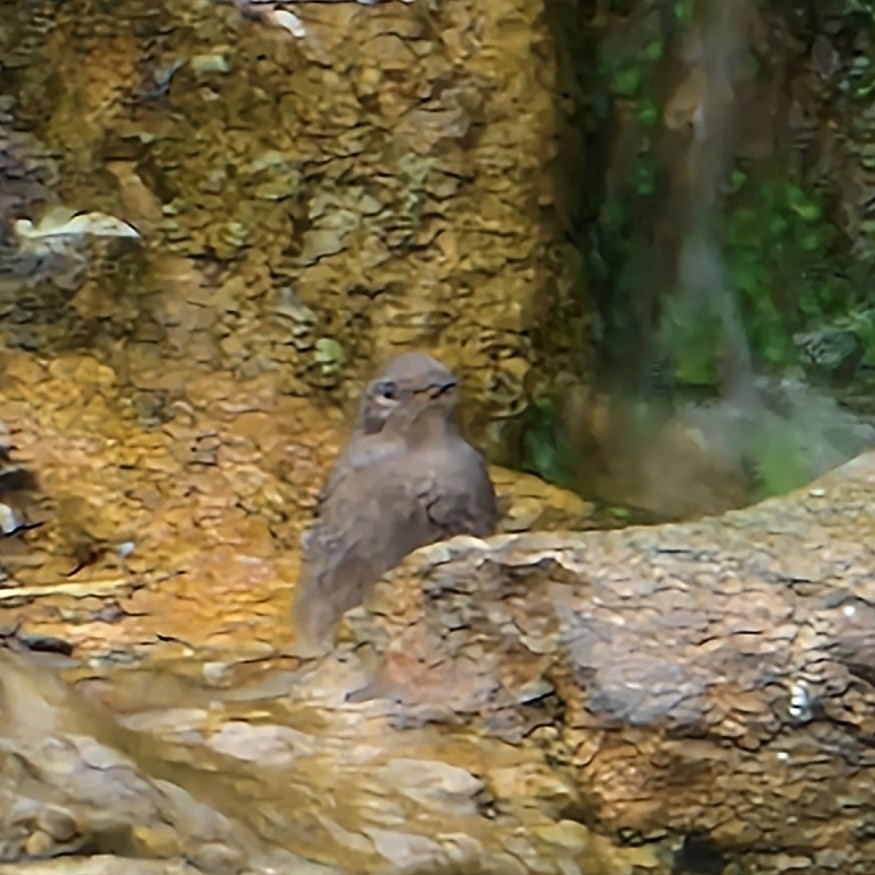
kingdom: Animalia
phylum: Chordata
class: Aves
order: Passeriformes
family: Muscicapidae
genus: Phoenicurus
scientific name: Phoenicurus ochruros
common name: Black redstart
